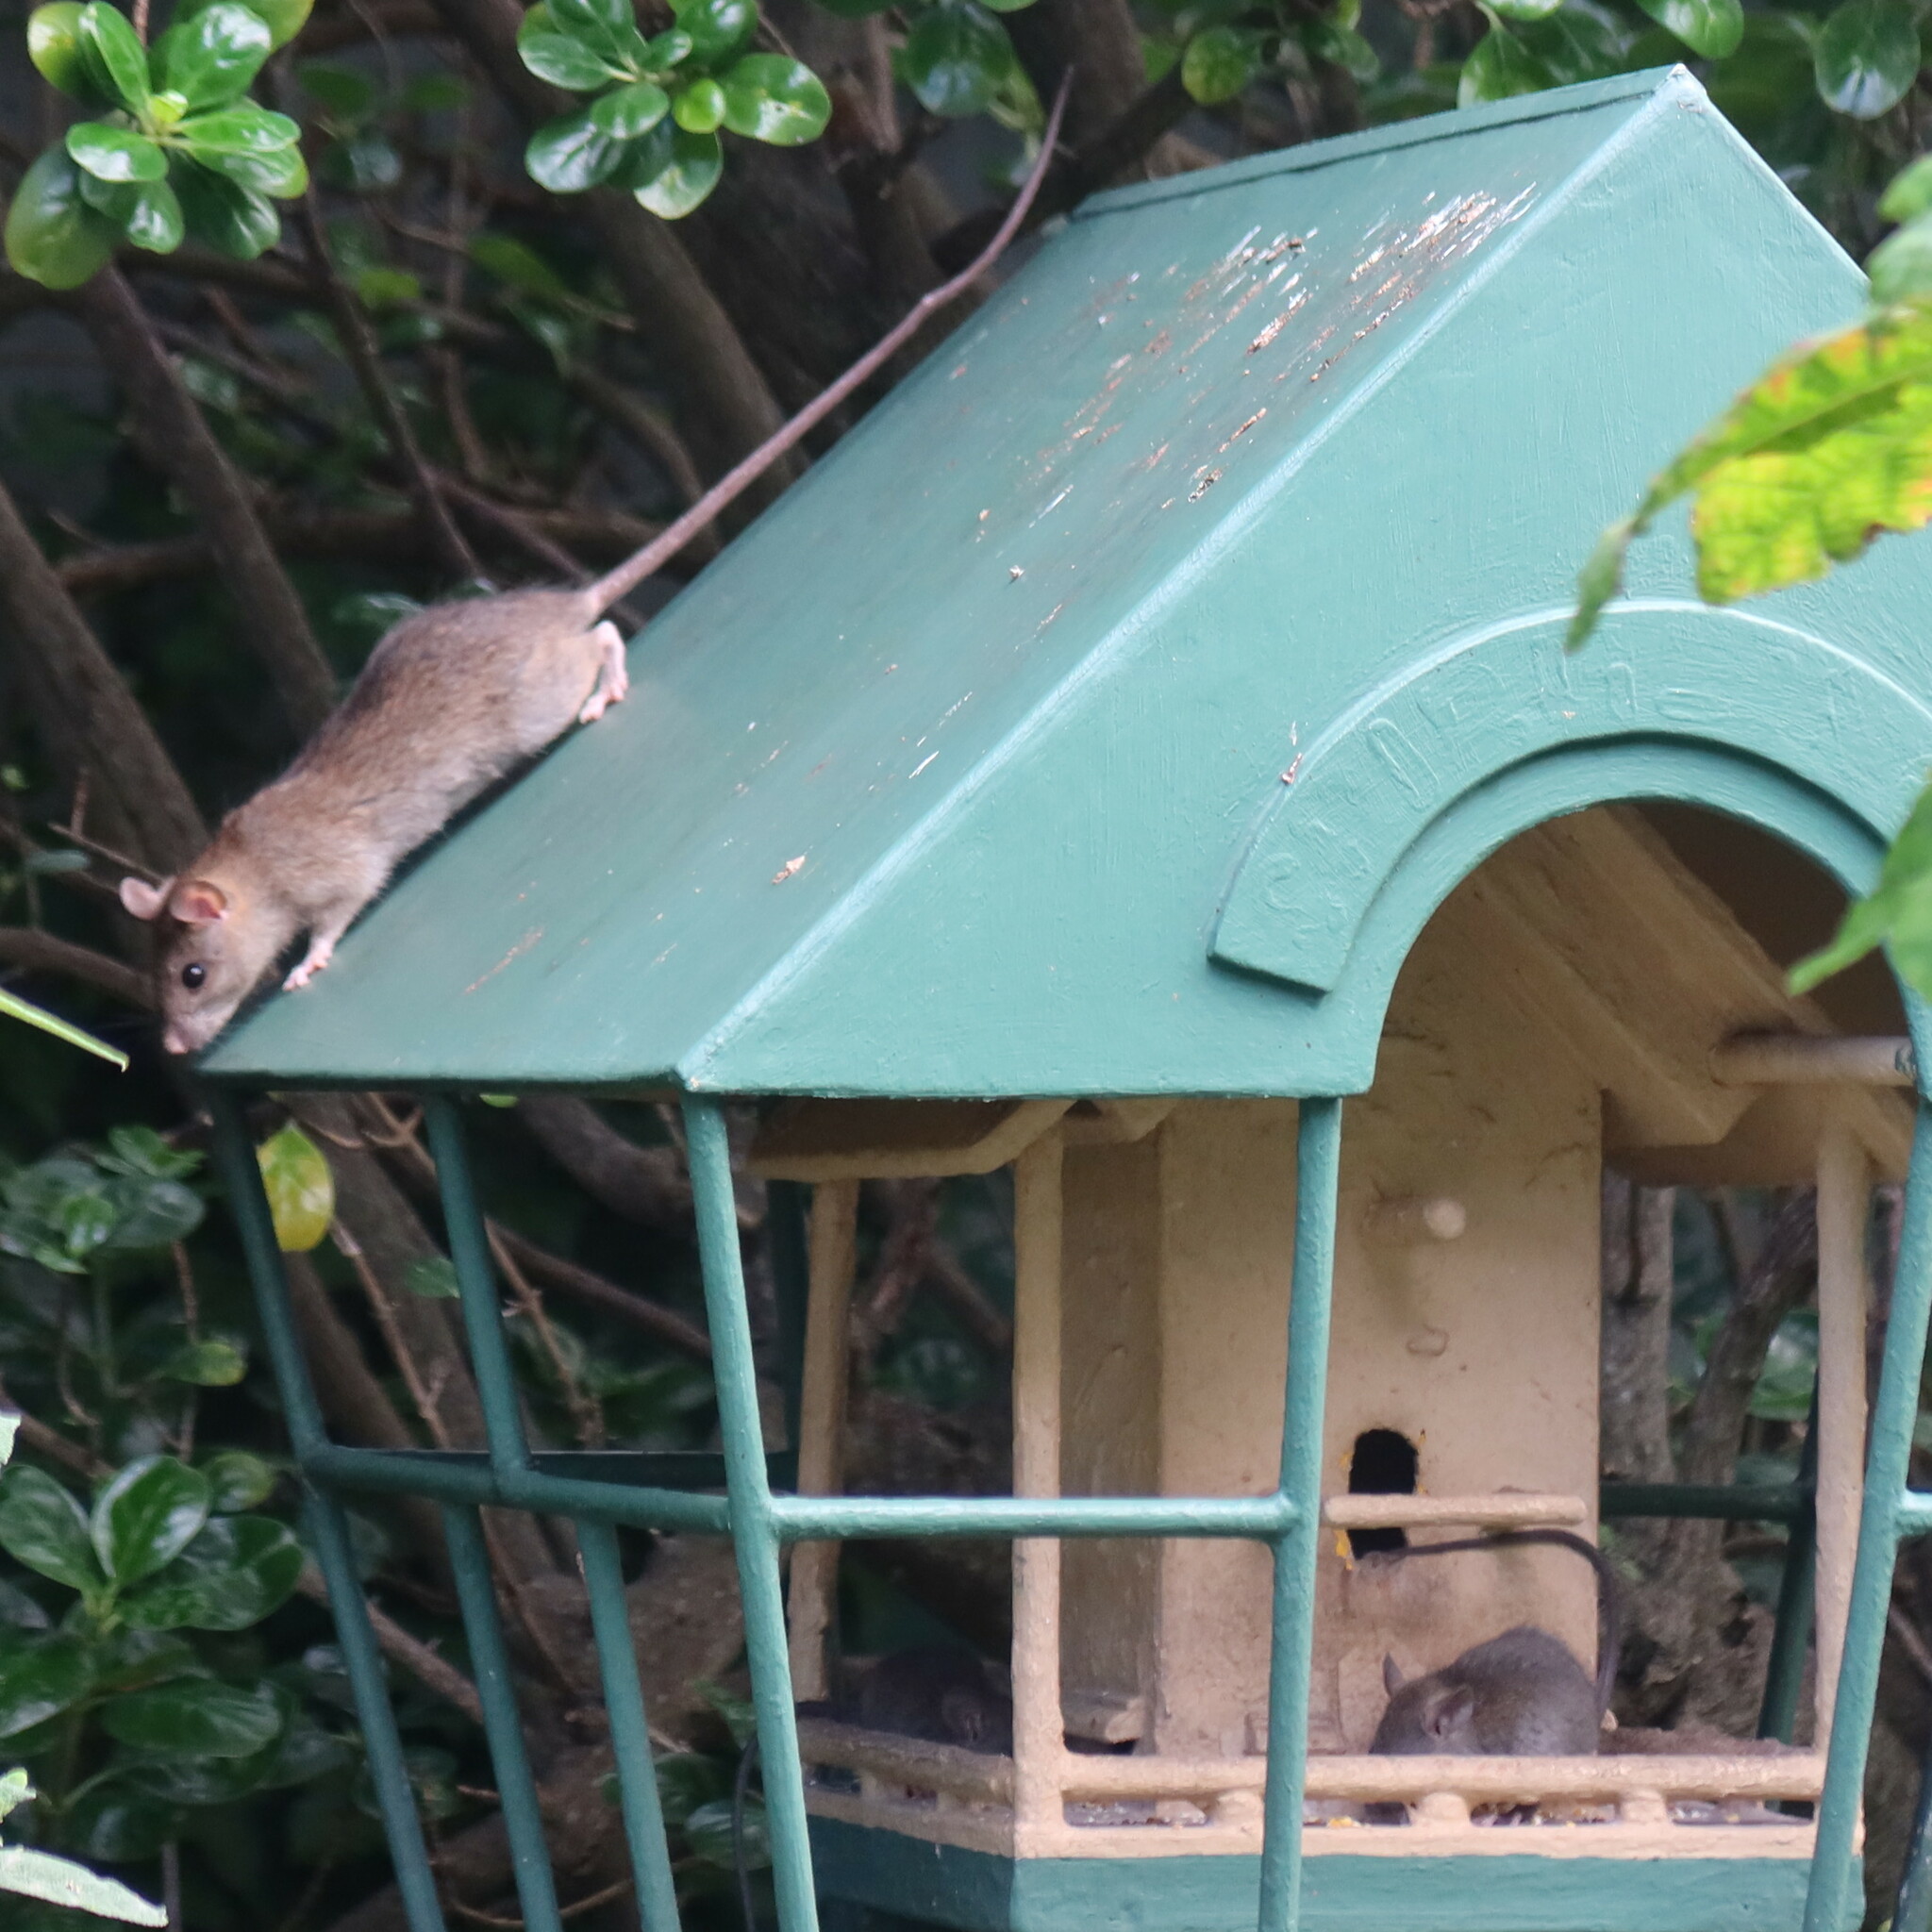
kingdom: Animalia
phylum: Chordata
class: Mammalia
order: Rodentia
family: Muridae
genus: Rattus
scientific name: Rattus rattus
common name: Black rat
